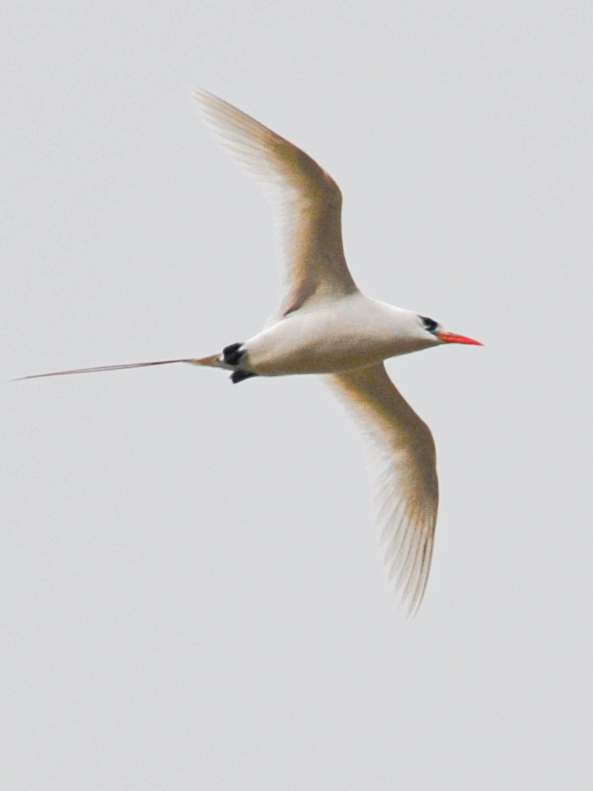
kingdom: Animalia
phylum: Chordata
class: Aves
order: Phaethontiformes
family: Phaethontidae
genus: Phaethon
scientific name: Phaethon rubricauda
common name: Red-tailed tropicbird
